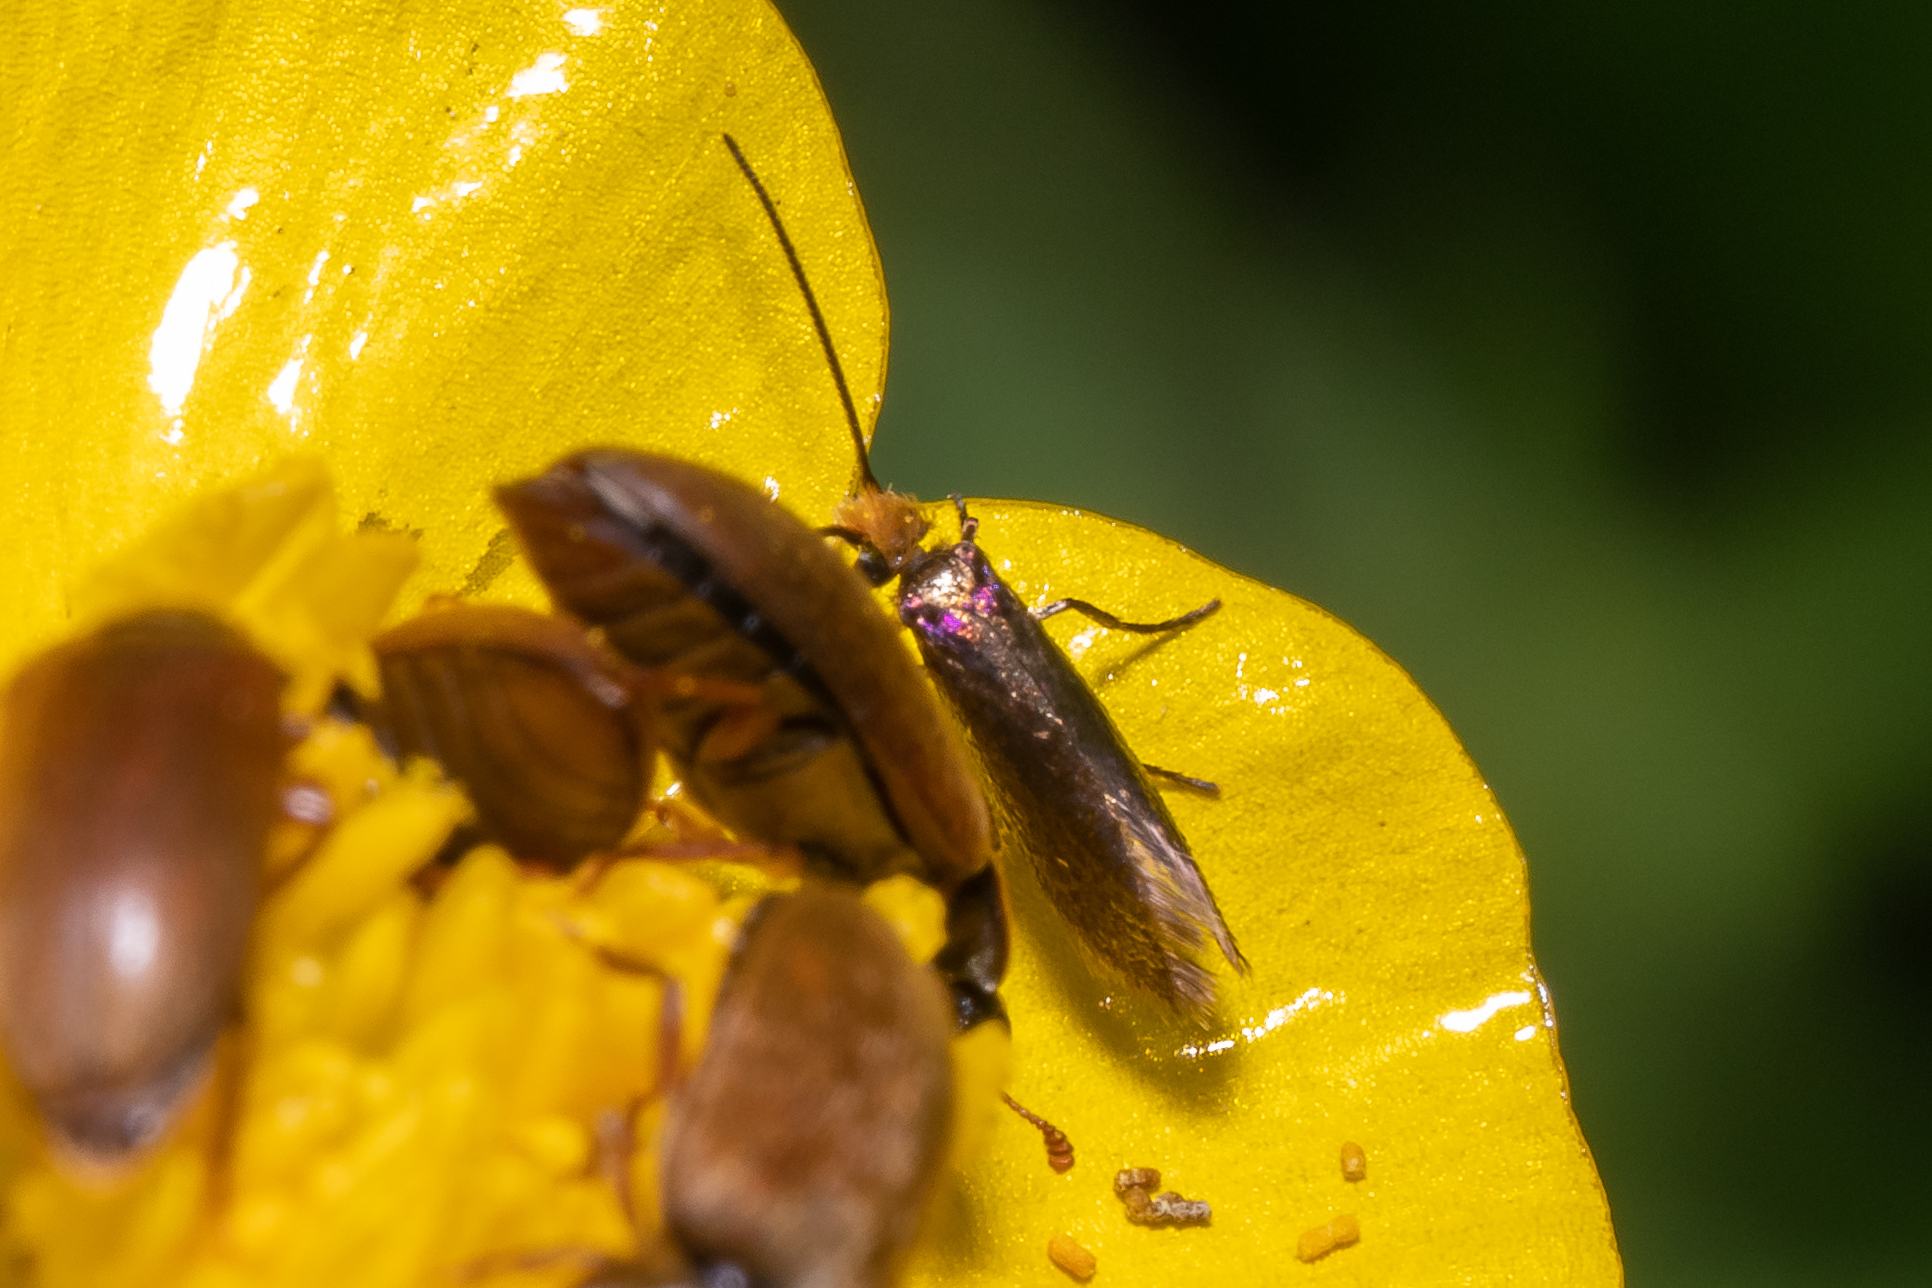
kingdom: Animalia
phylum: Arthropoda
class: Insecta
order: Lepidoptera
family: Micropterigidae
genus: Micropterix
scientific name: Micropterix calthella
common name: Plain gold
